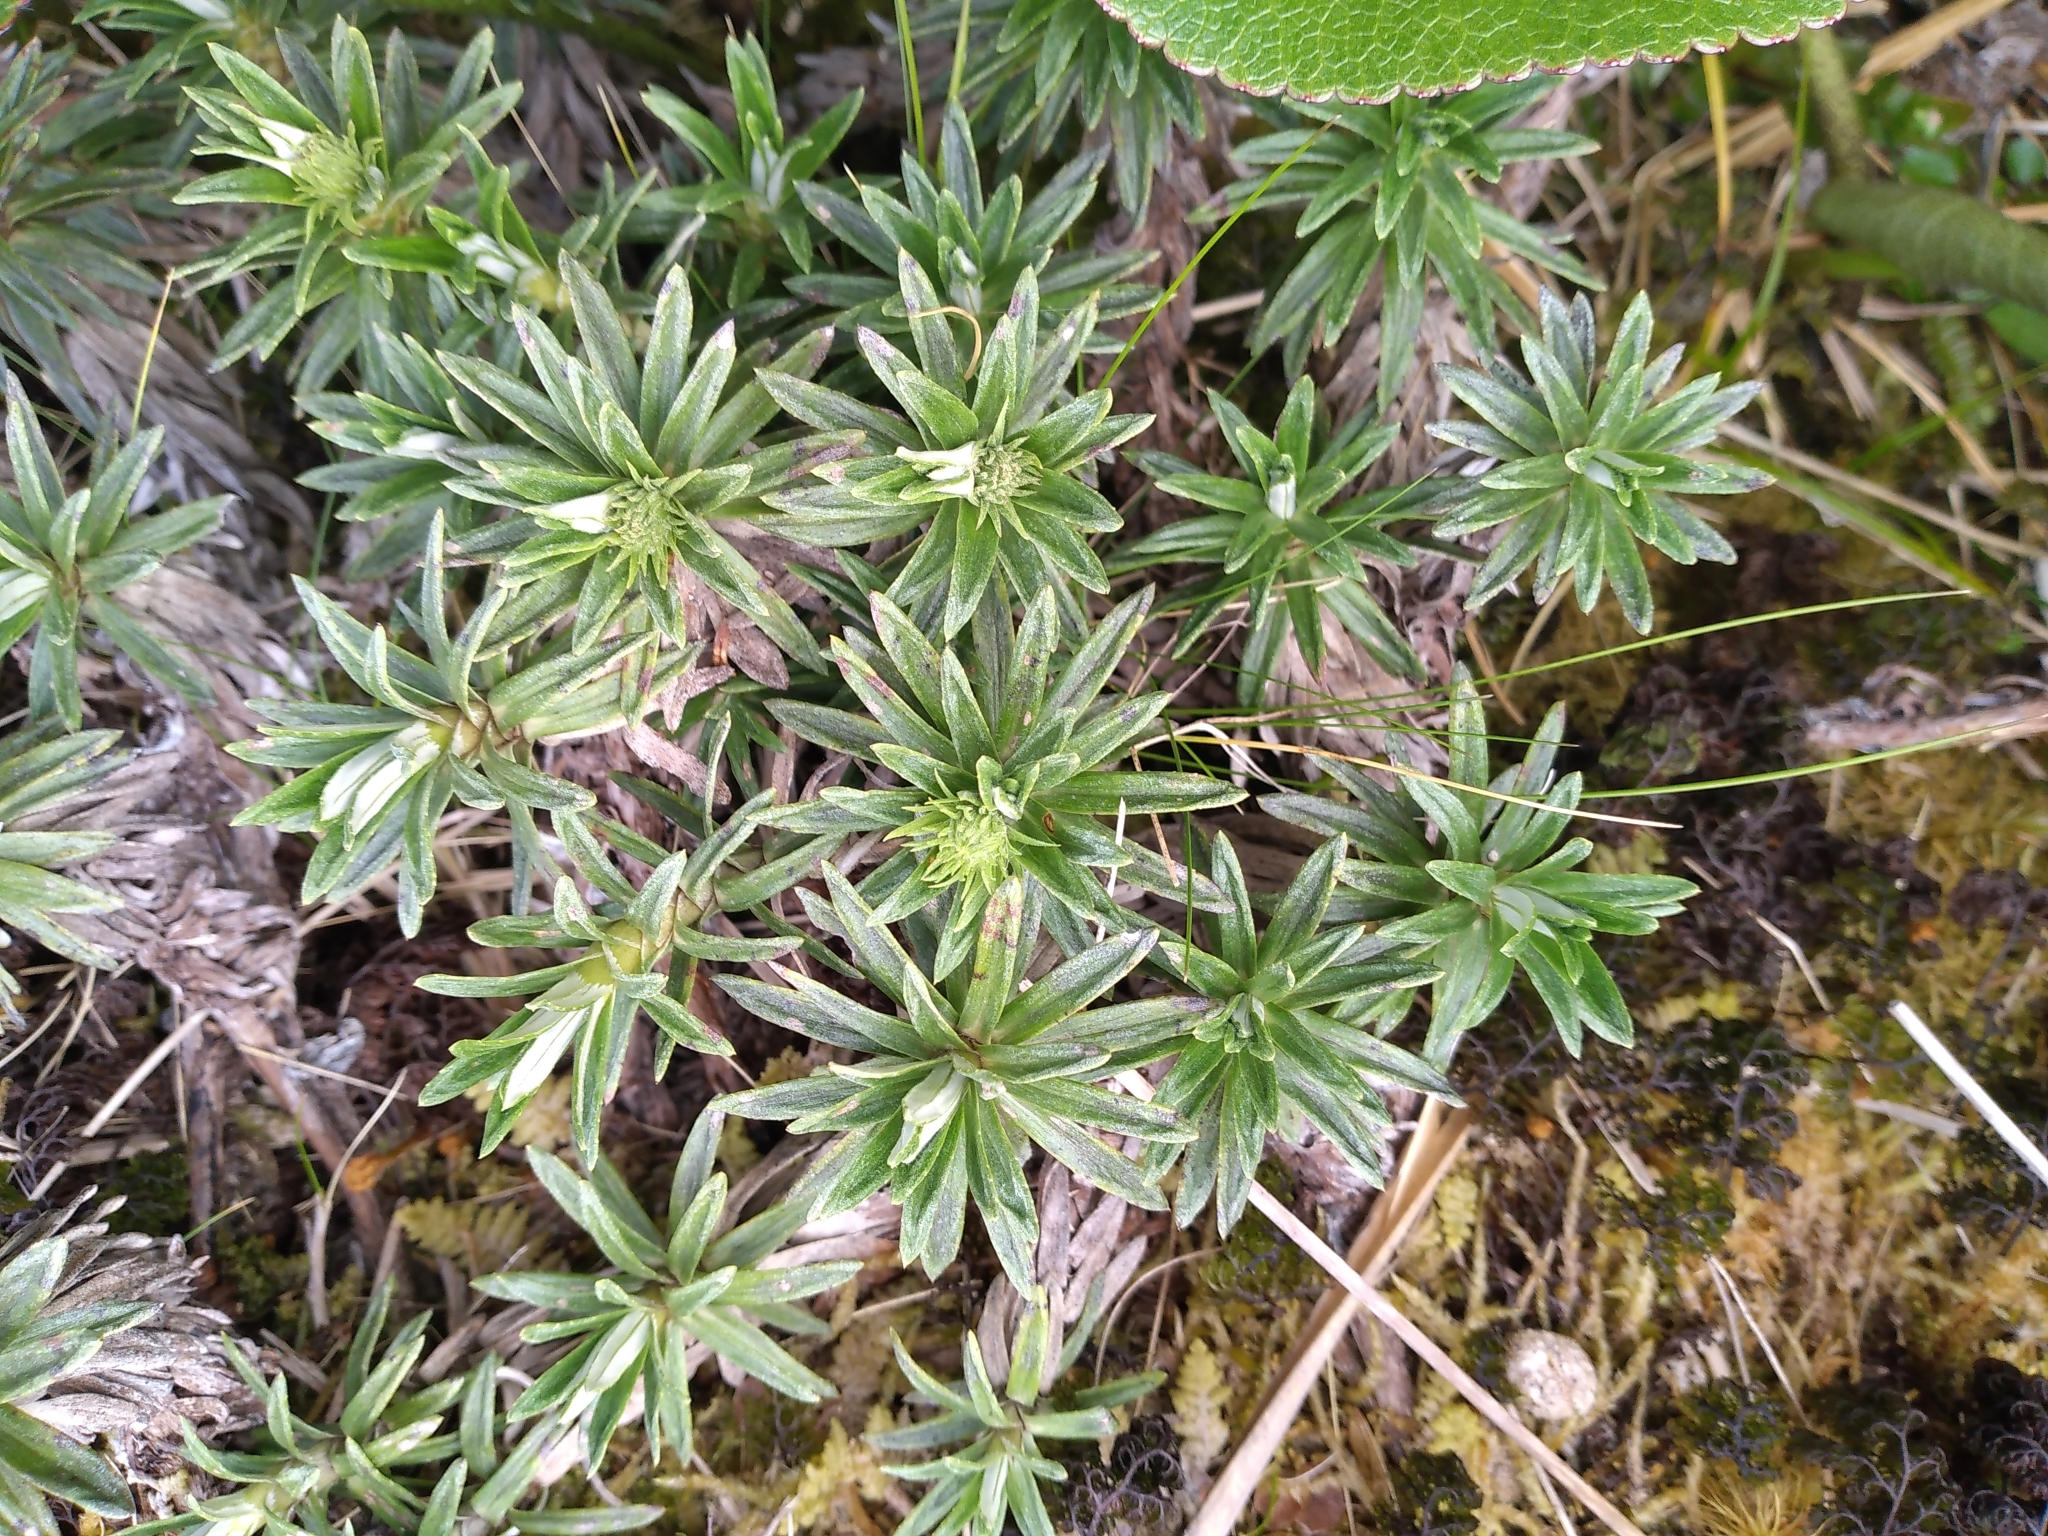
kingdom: Plantae
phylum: Tracheophyta
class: Magnoliopsida
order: Asterales
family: Asteraceae
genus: Celmisia
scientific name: Celmisia walkeri
